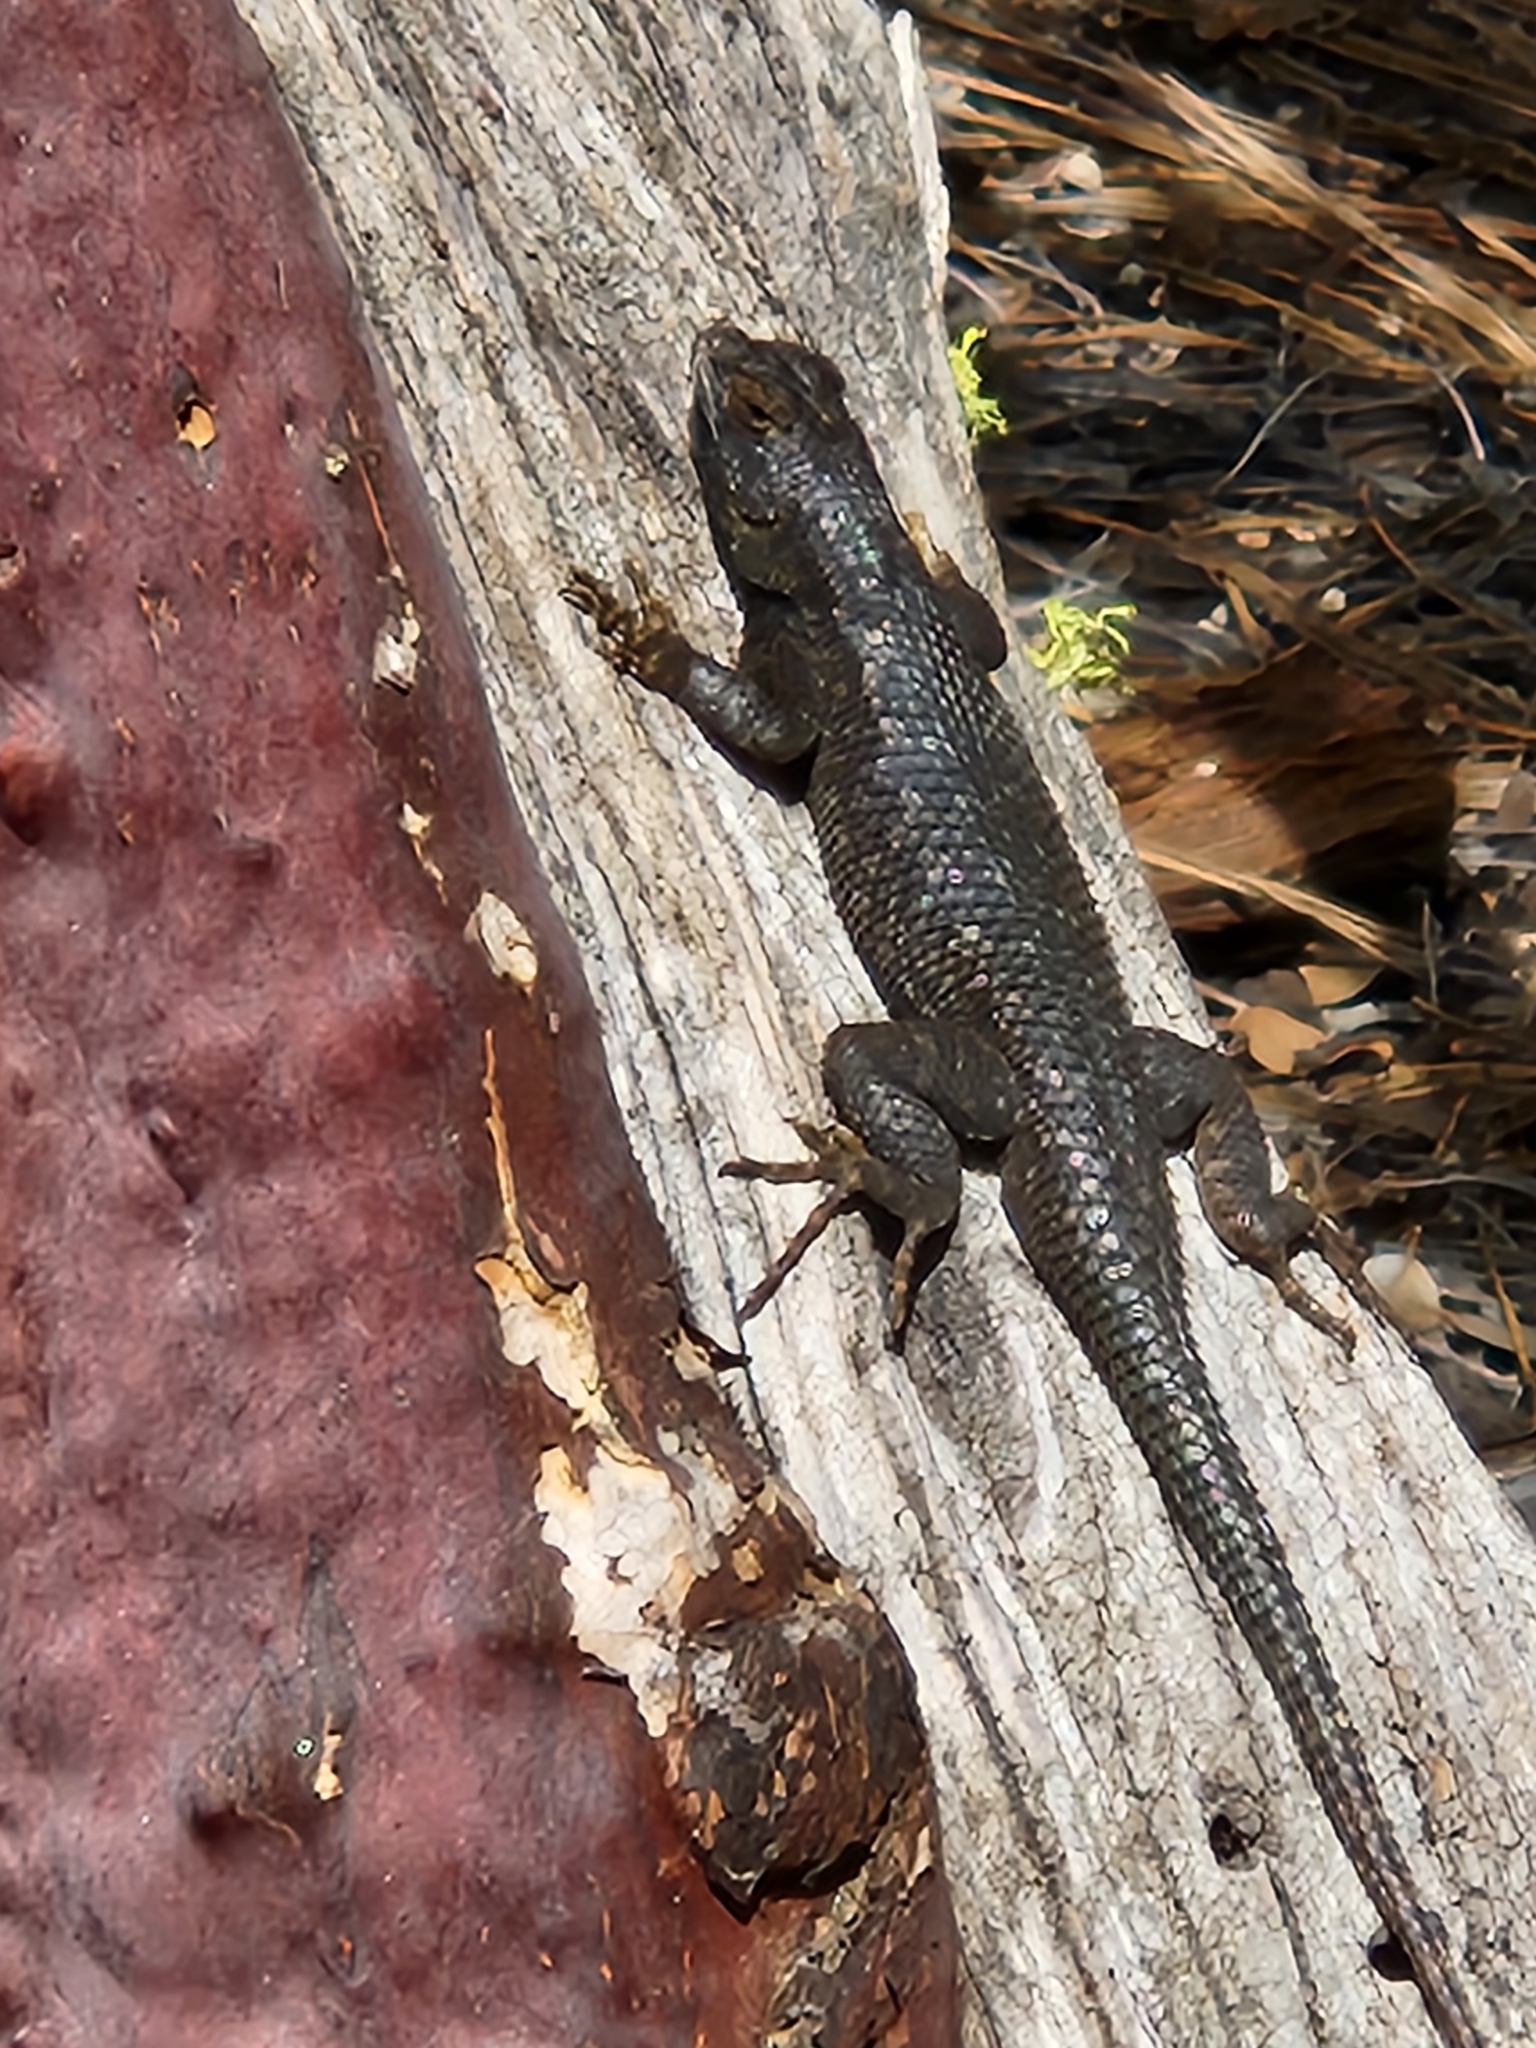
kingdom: Animalia
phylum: Chordata
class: Squamata
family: Phrynosomatidae
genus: Sceloporus
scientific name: Sceloporus occidentalis
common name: Western fence lizard
